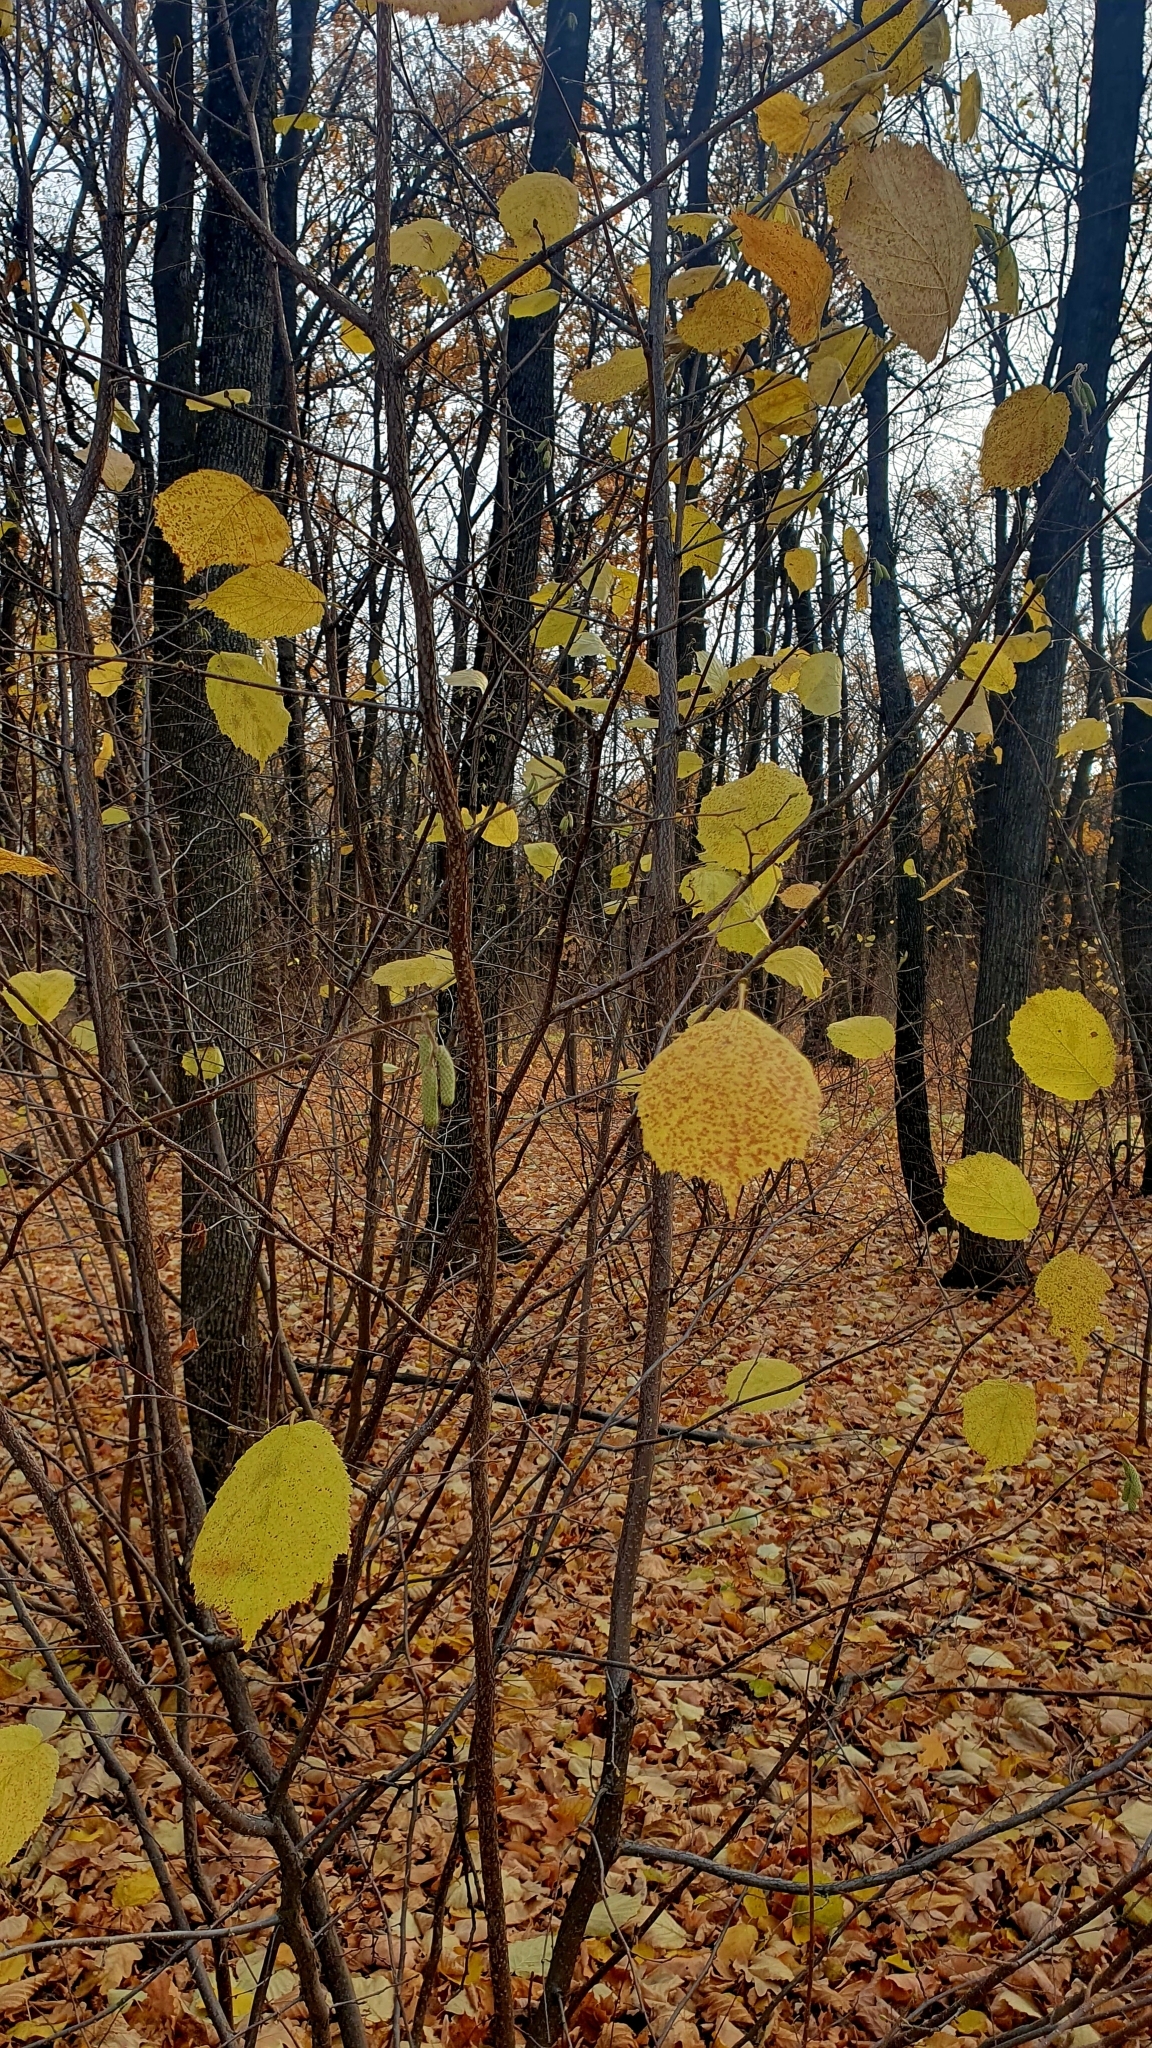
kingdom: Plantae
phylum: Tracheophyta
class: Magnoliopsida
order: Fagales
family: Betulaceae
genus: Corylus
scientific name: Corylus avellana
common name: European hazel
